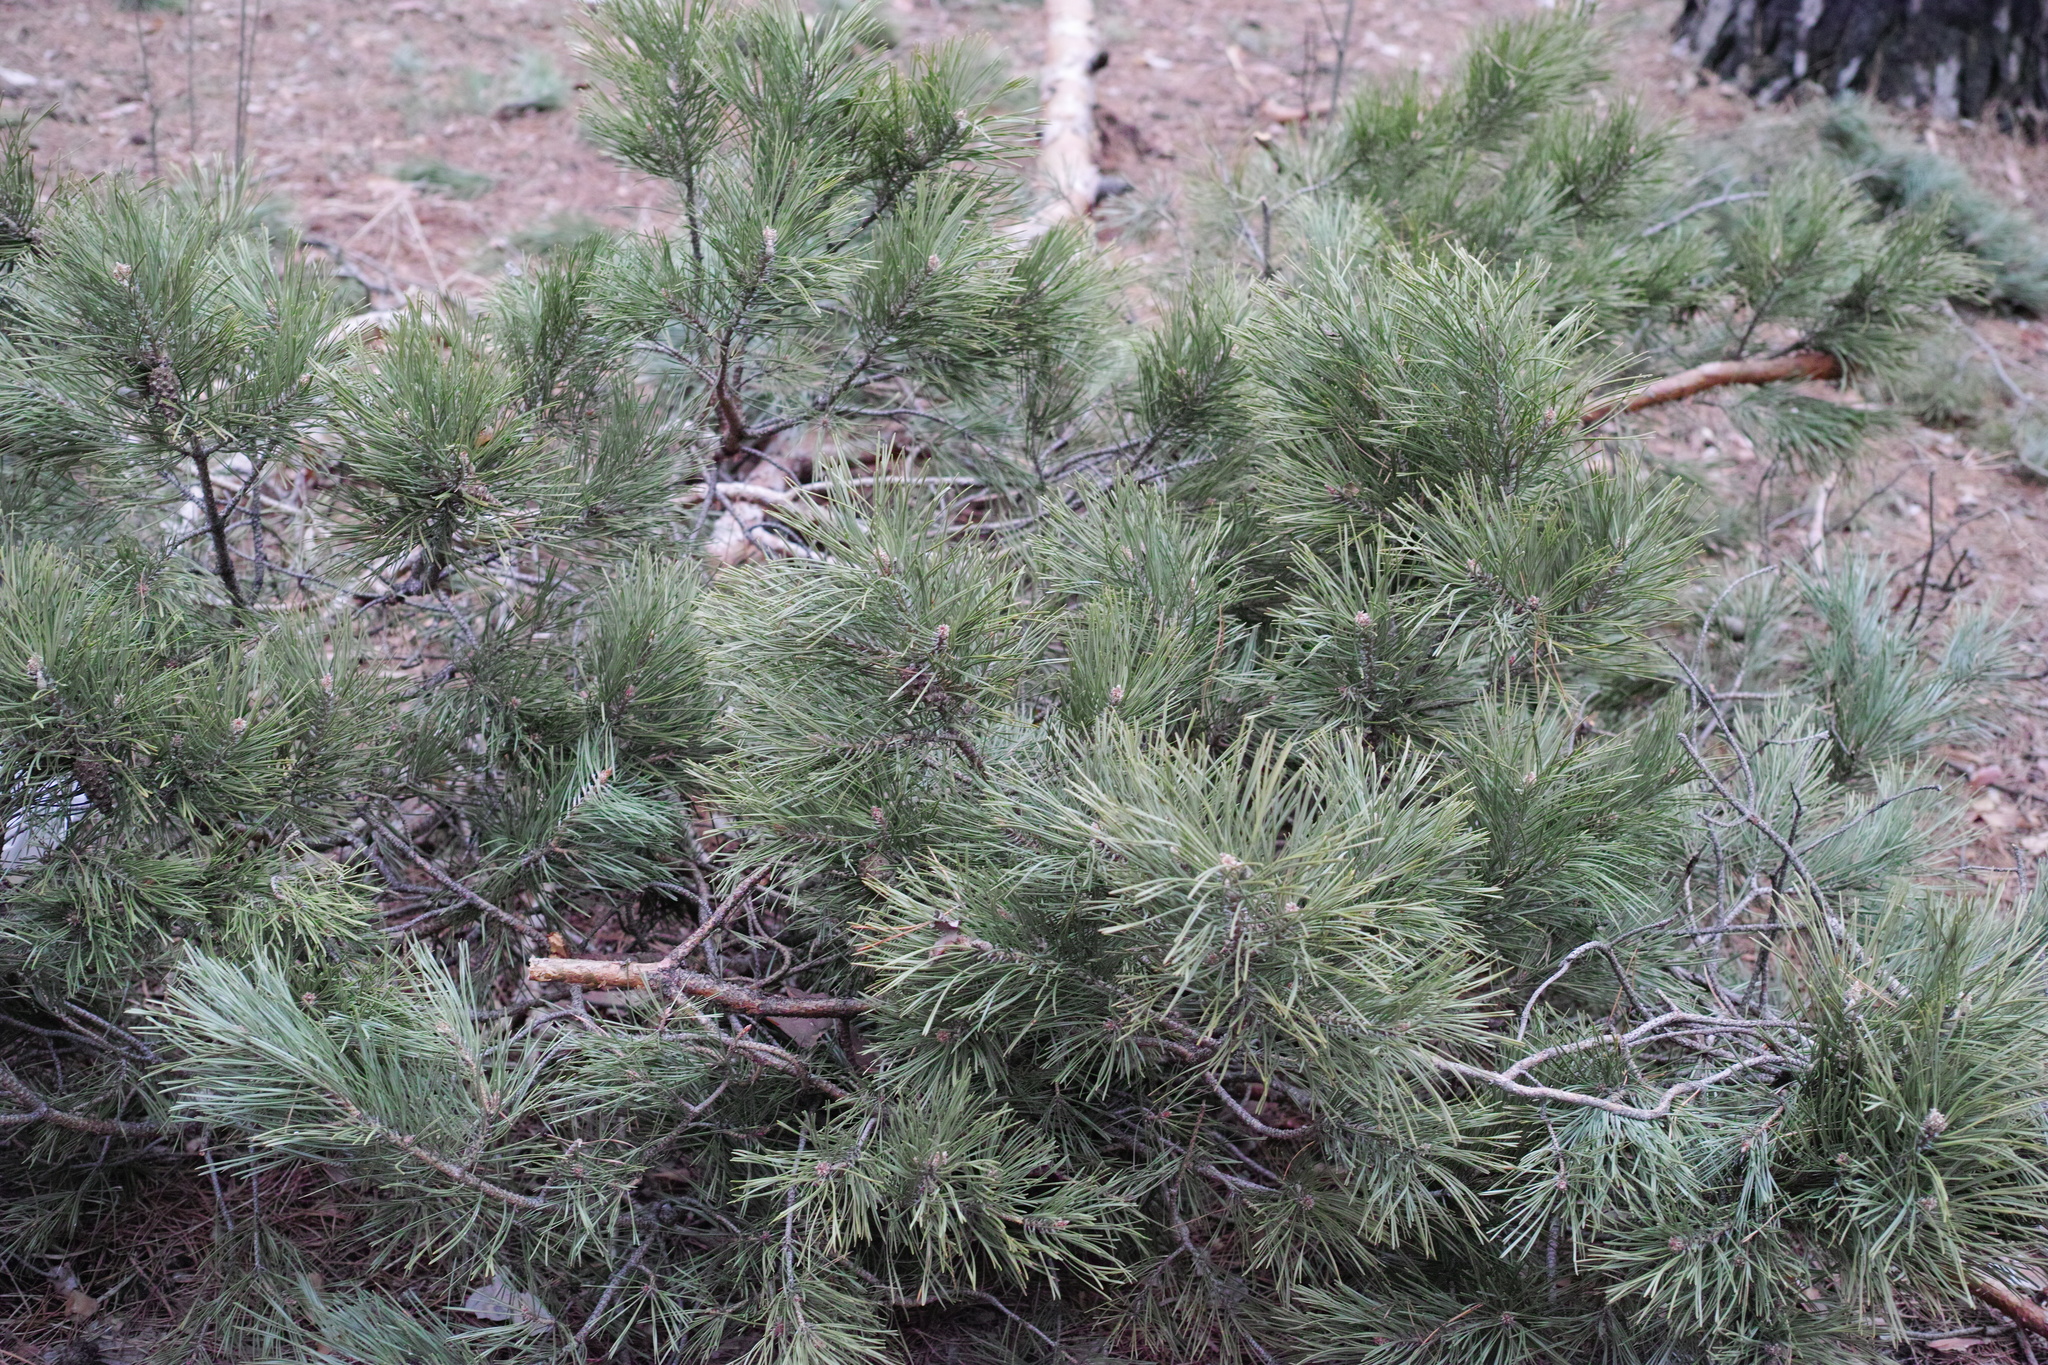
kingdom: Plantae
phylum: Tracheophyta
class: Pinopsida
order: Pinales
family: Pinaceae
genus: Pinus
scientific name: Pinus sylvestris
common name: Scots pine
